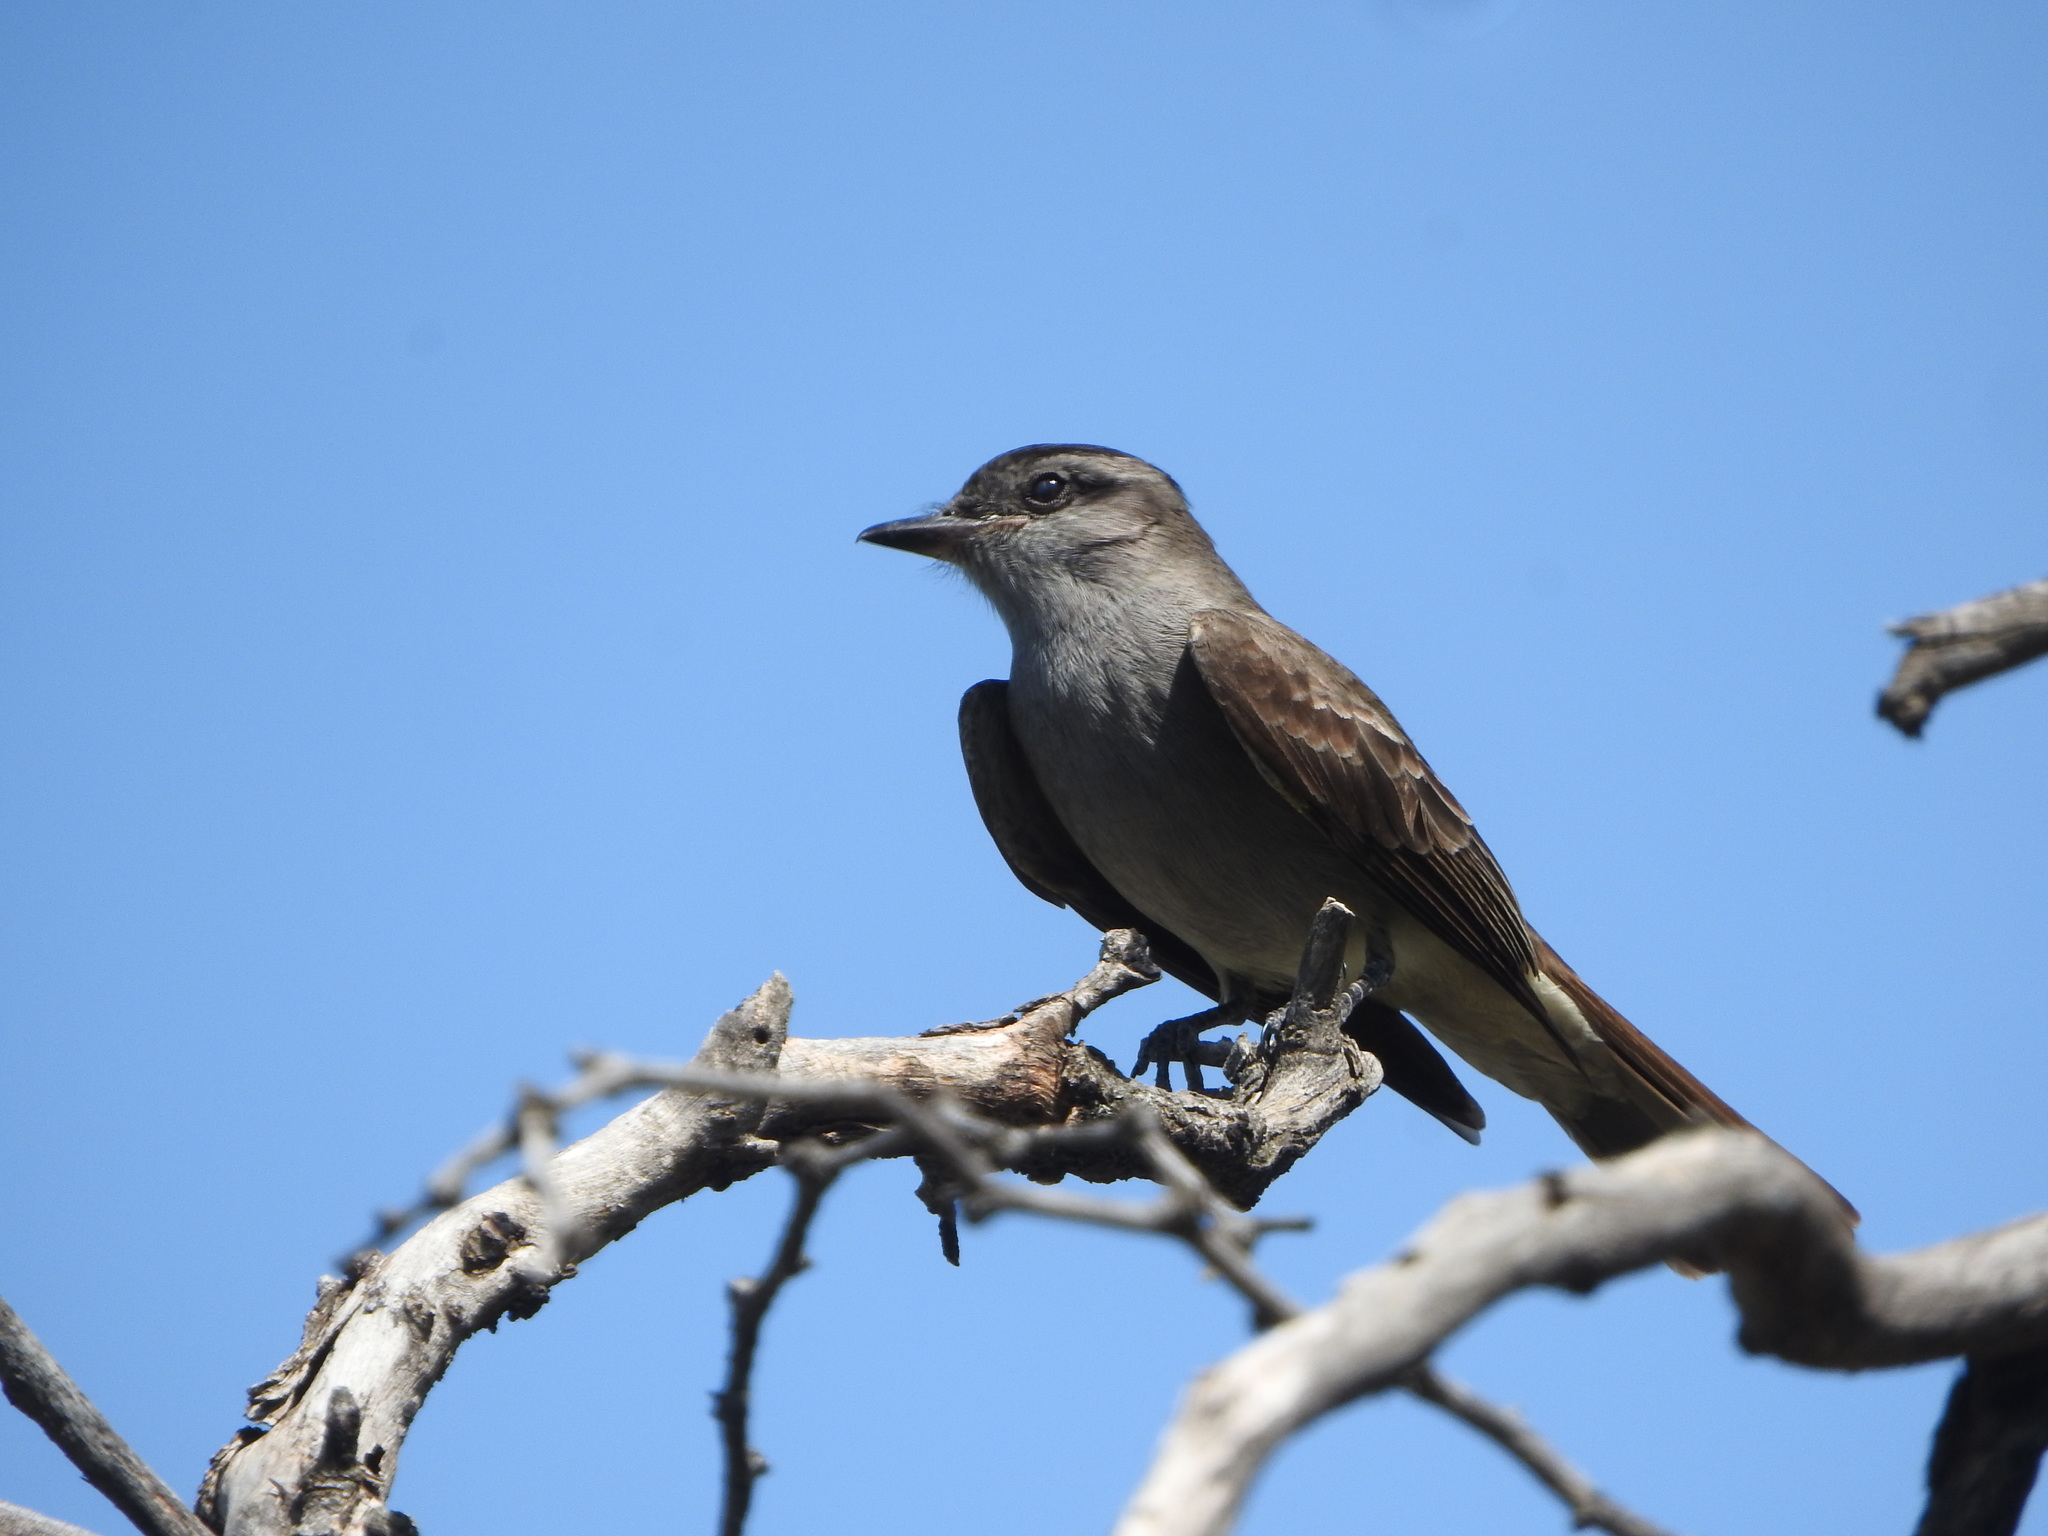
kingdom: Animalia
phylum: Chordata
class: Aves
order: Passeriformes
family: Tyrannidae
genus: Empidonomus
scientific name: Empidonomus aurantioatrocristatus
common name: Crowned slaty flycatcher
